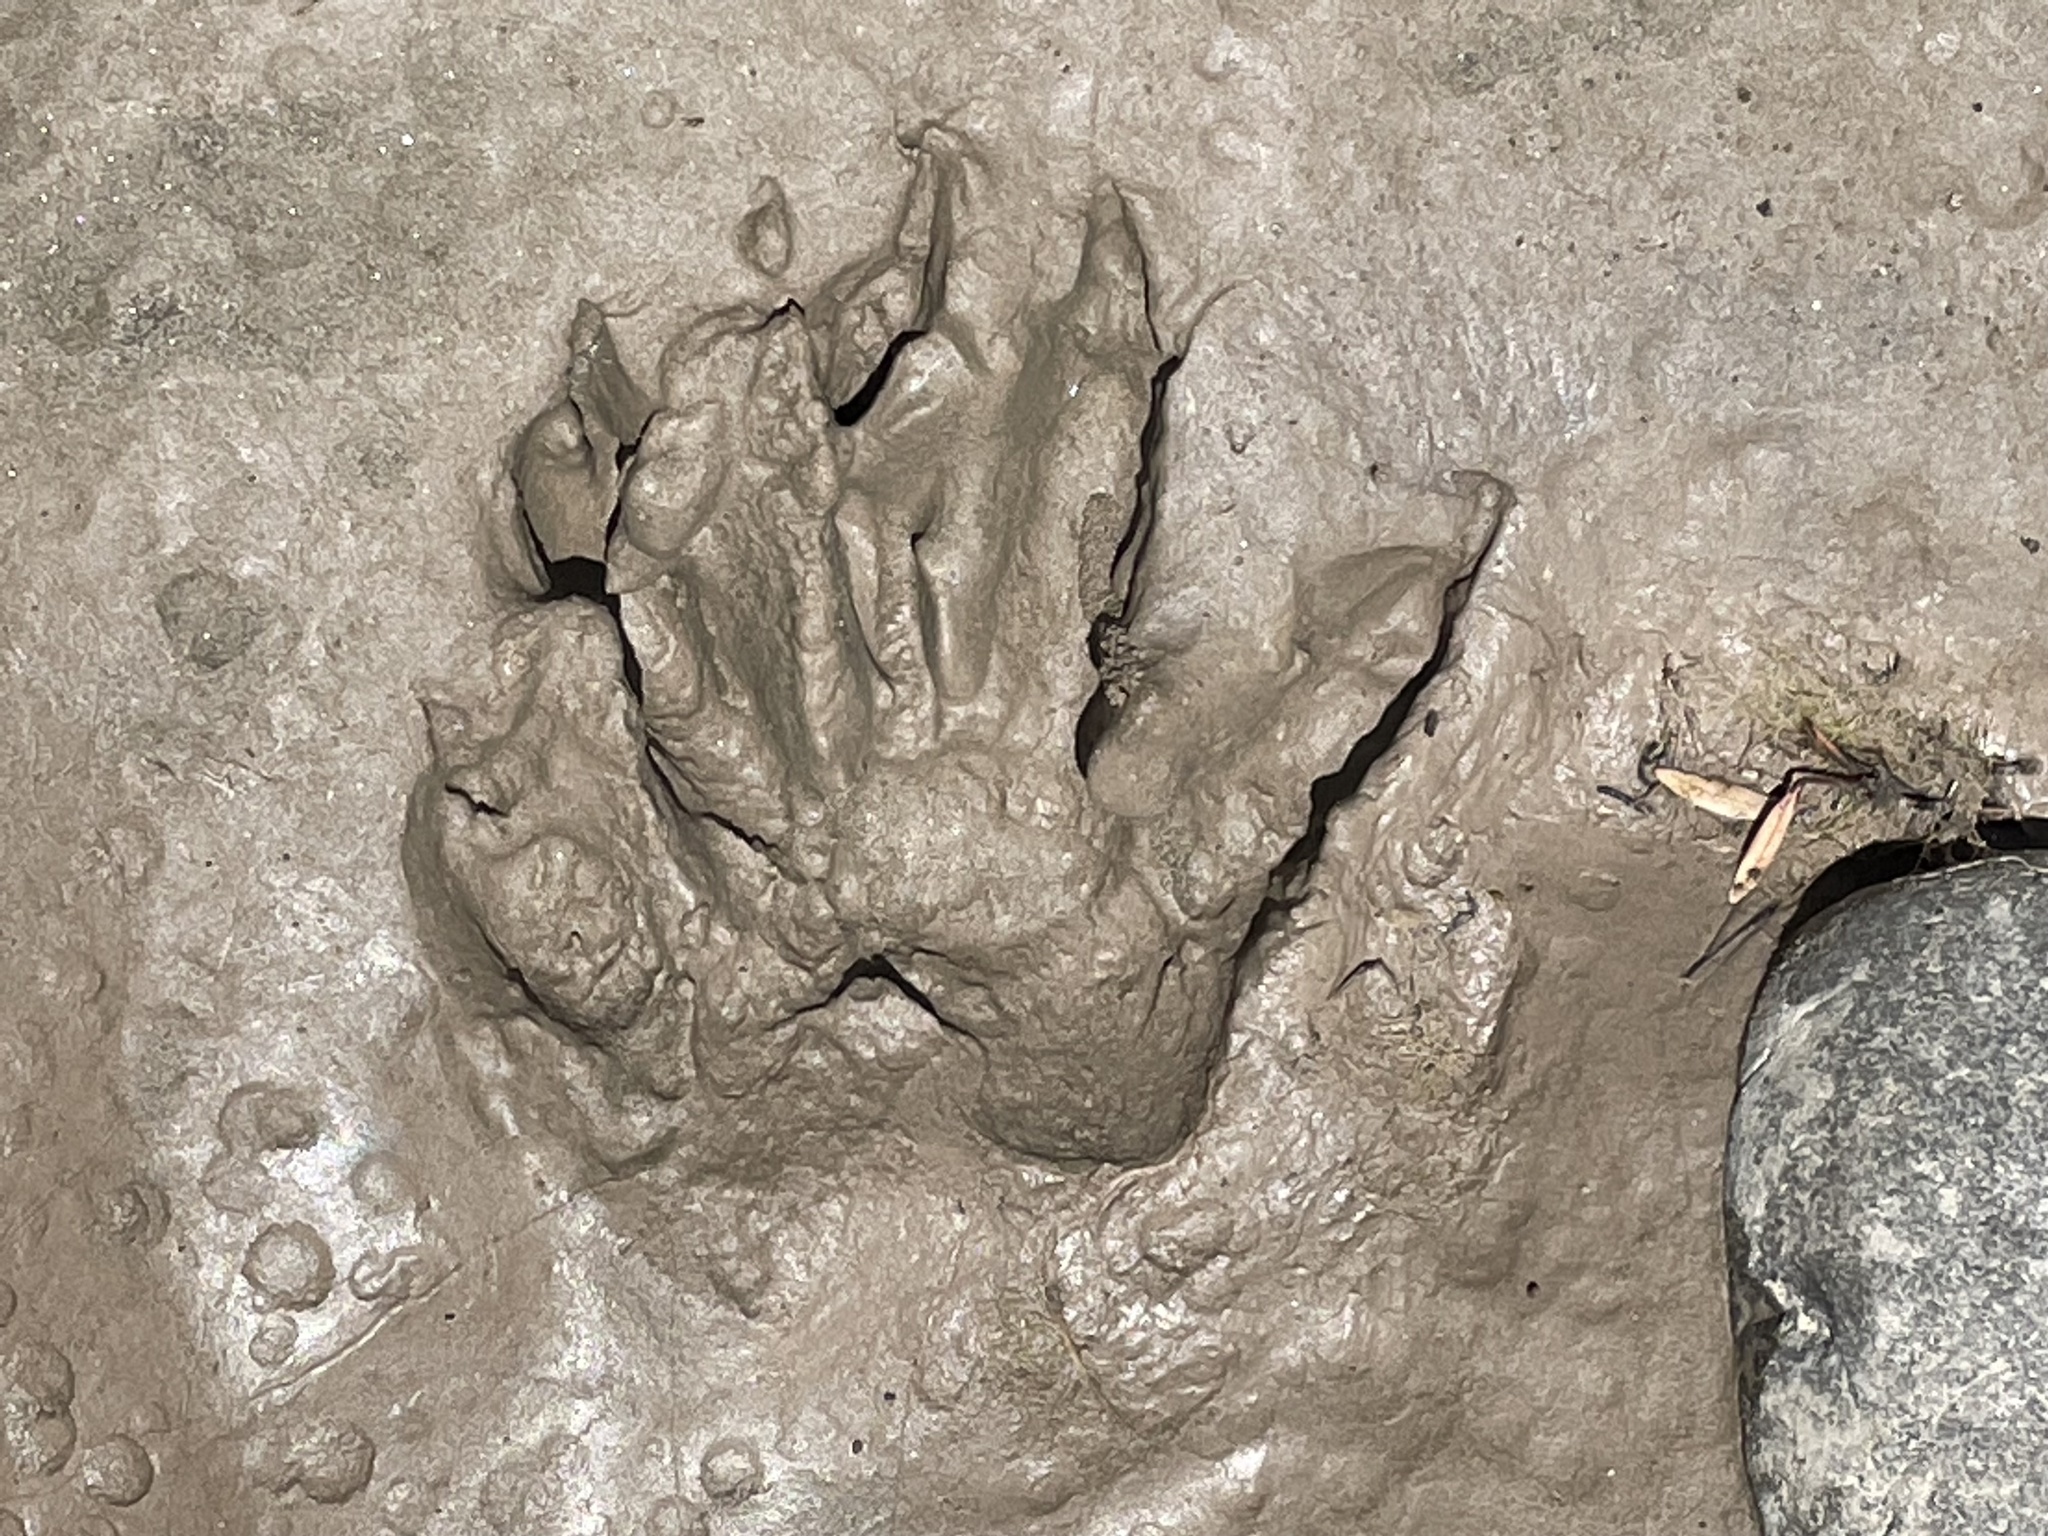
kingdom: Animalia
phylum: Chordata
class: Mammalia
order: Carnivora
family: Procyonidae
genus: Procyon
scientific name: Procyon lotor
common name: Raccoon
